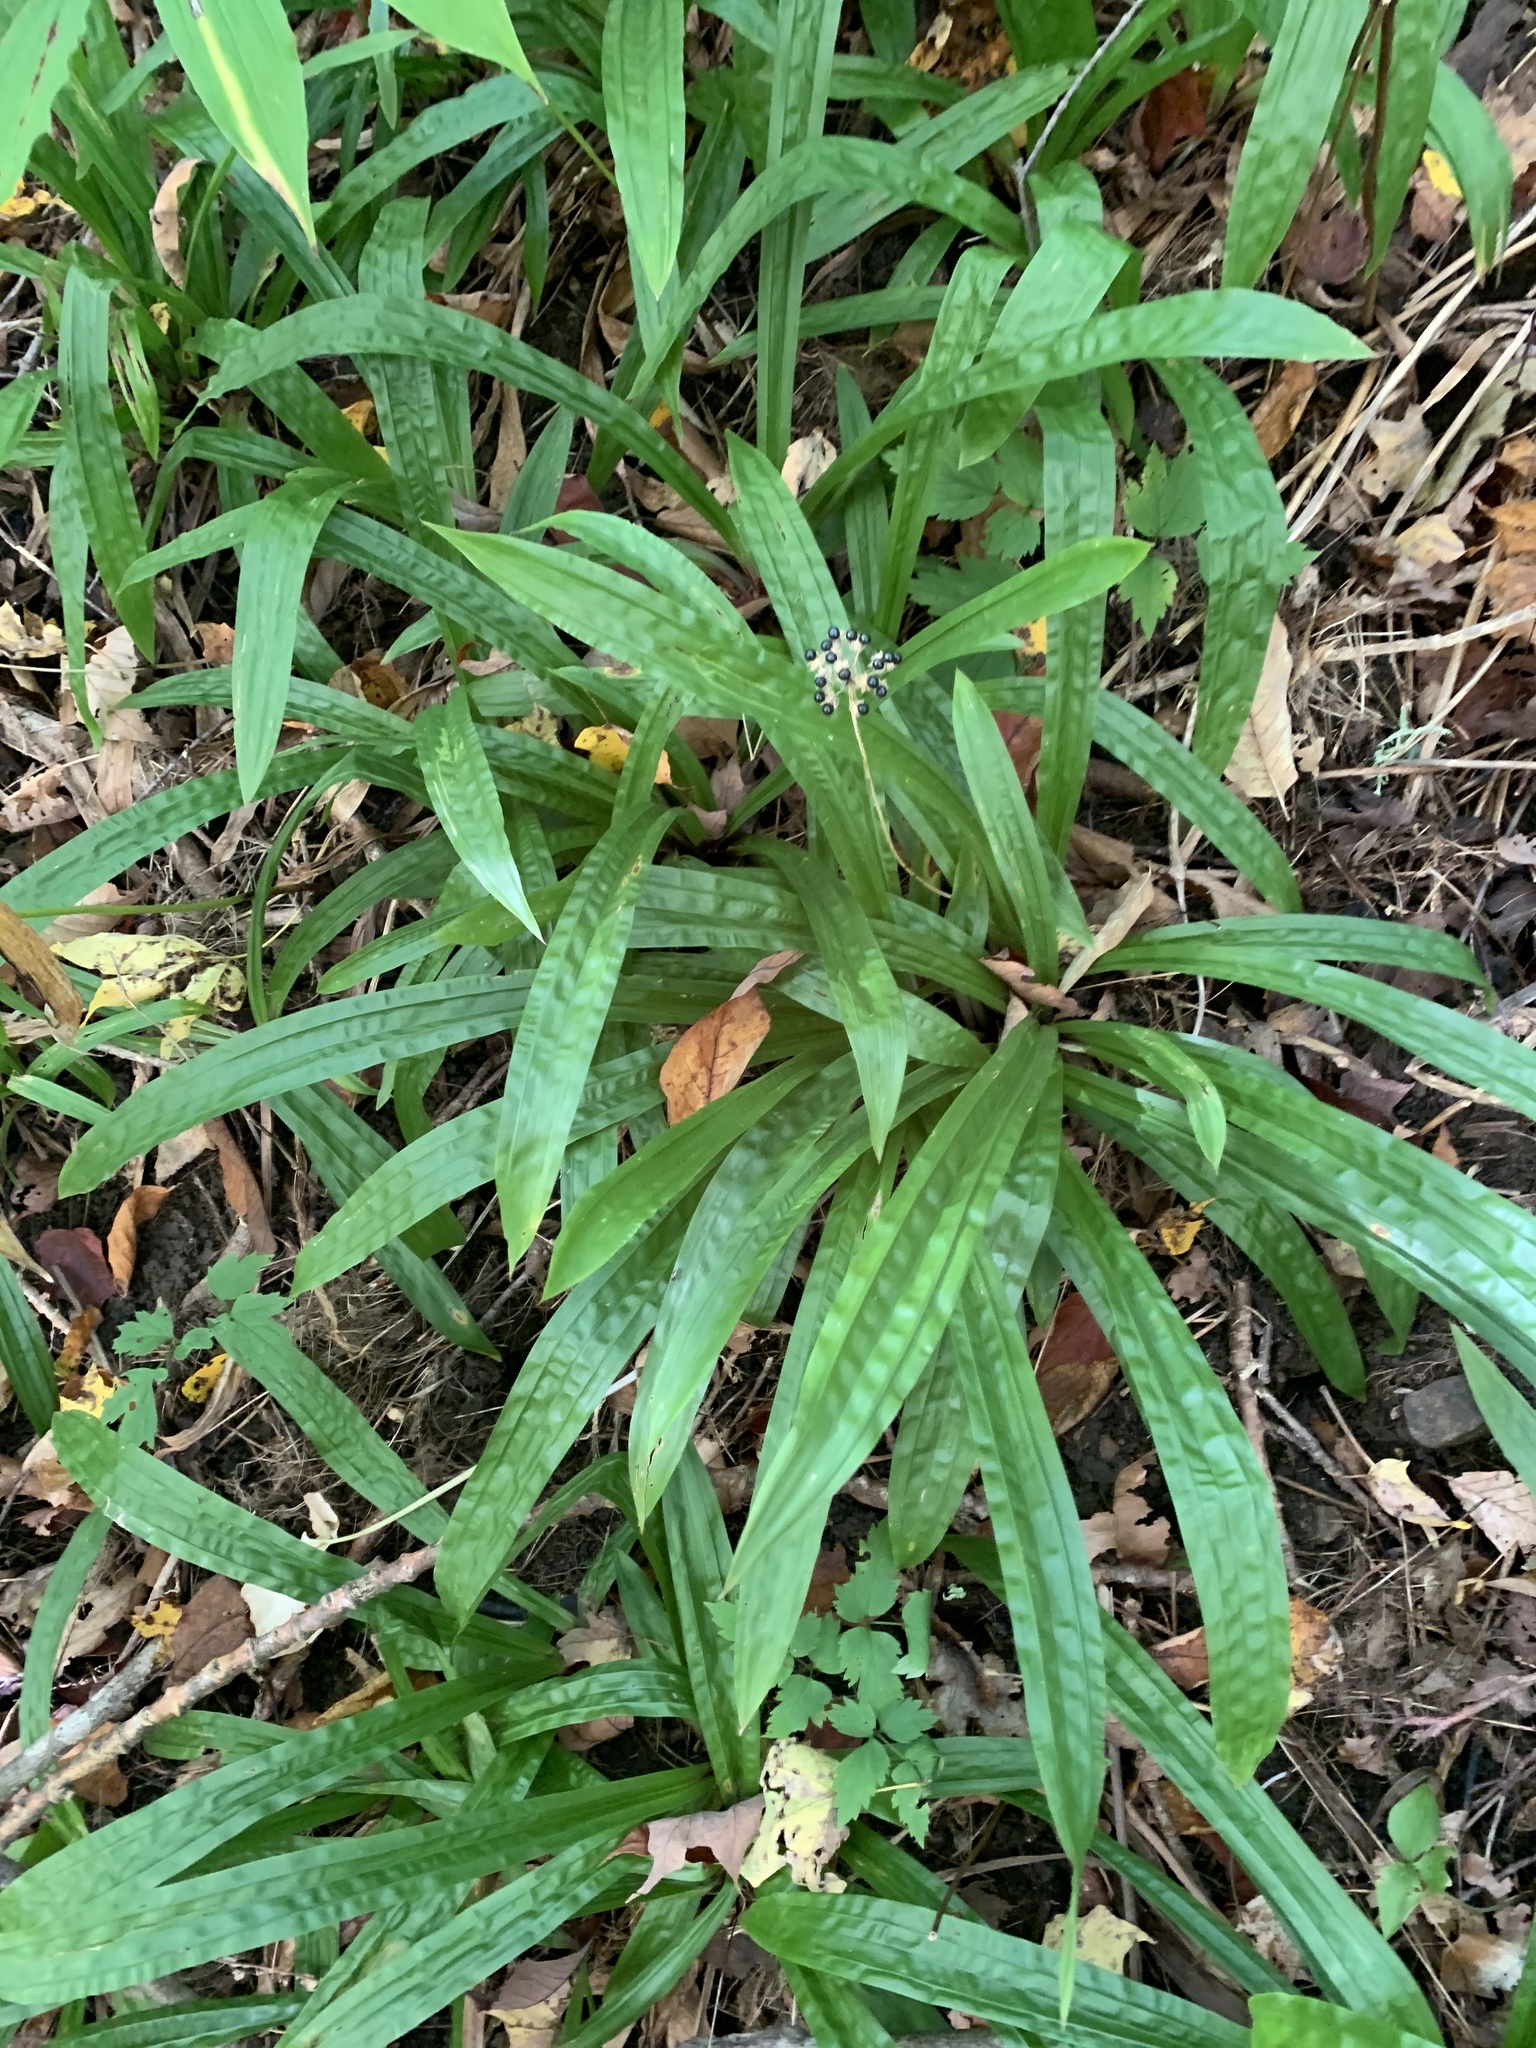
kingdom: Plantae
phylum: Tracheophyta
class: Liliopsida
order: Poales
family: Cyperaceae
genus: Carex
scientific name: Carex plantaginea
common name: Plantain-leaved sedge
